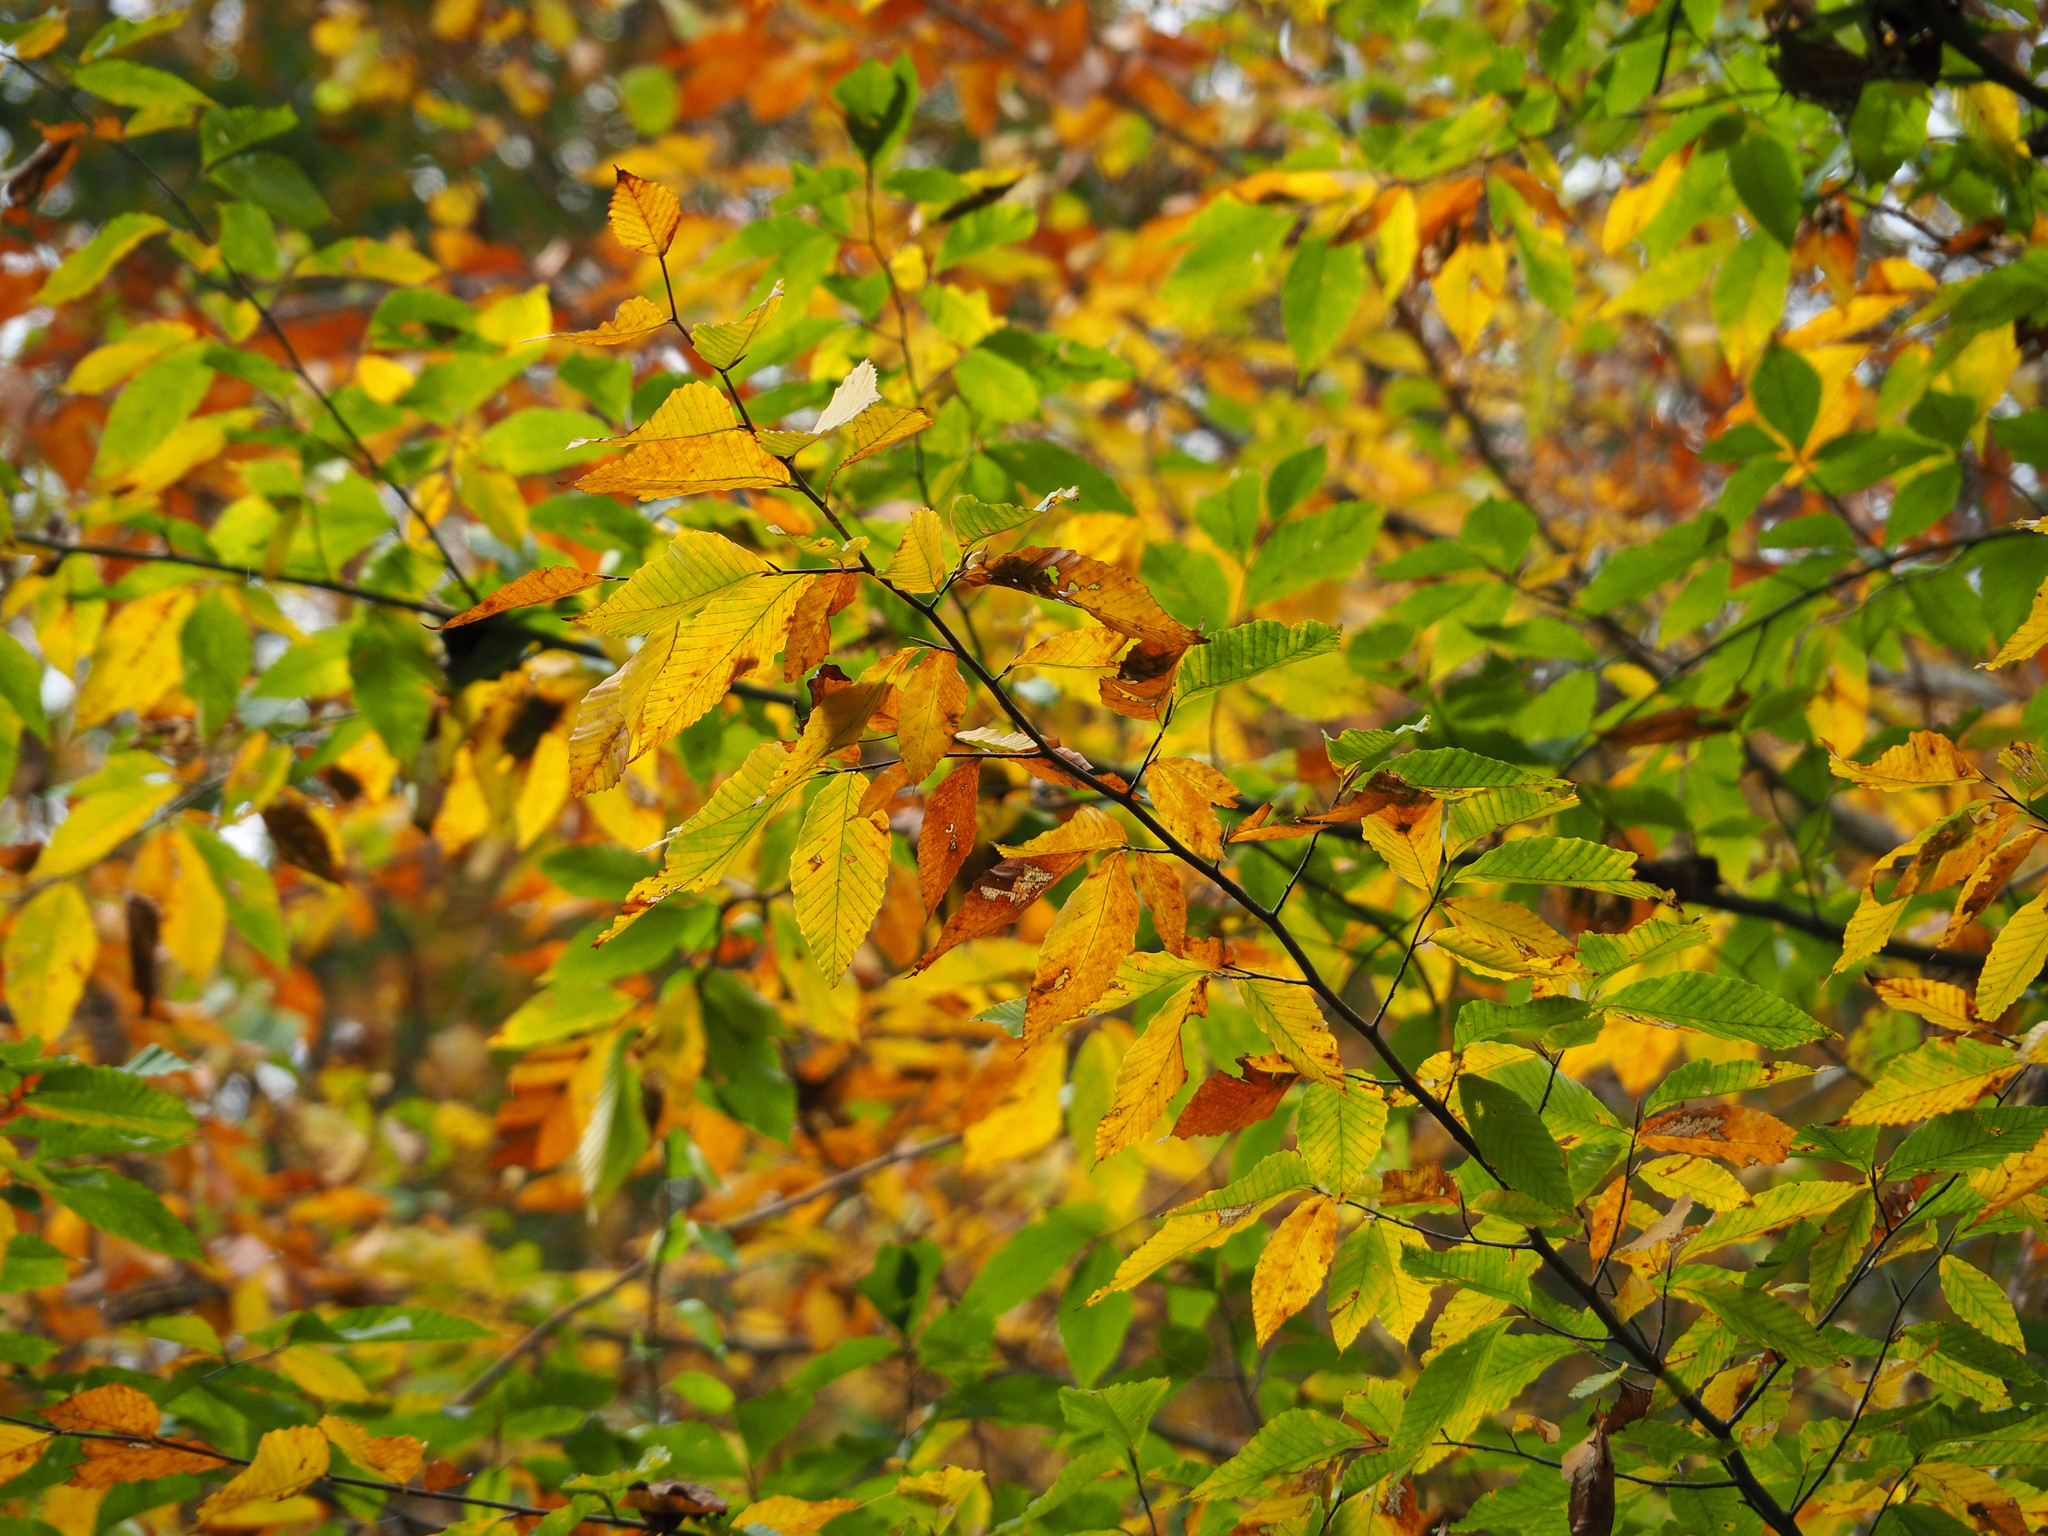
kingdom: Plantae
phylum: Tracheophyta
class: Magnoliopsida
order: Fagales
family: Fagaceae
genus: Fagus
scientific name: Fagus grandifolia
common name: American beech
